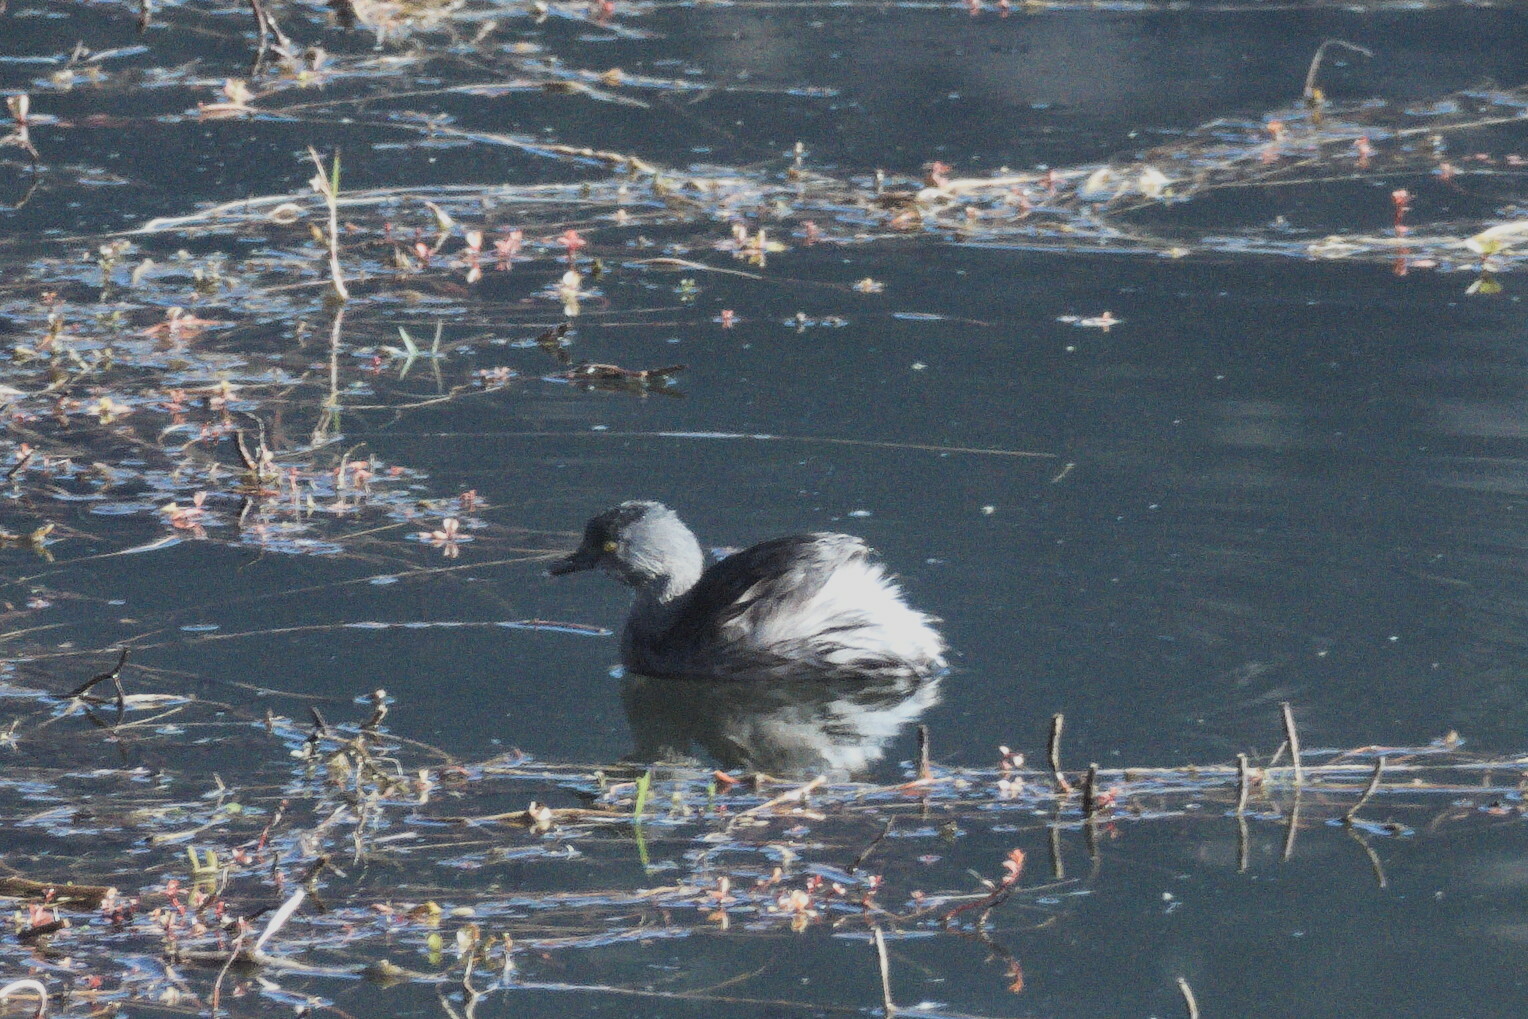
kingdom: Animalia
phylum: Chordata
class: Aves
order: Podicipediformes
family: Podicipedidae
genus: Tachybaptus
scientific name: Tachybaptus dominicus
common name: Least grebe
